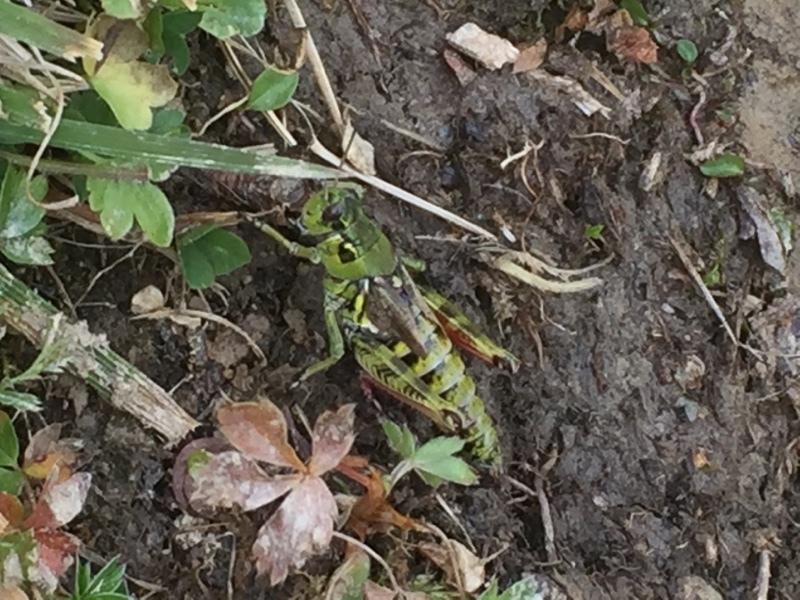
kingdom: Animalia
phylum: Arthropoda
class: Insecta
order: Orthoptera
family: Acrididae
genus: Bohemanella
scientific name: Bohemanella frigida
